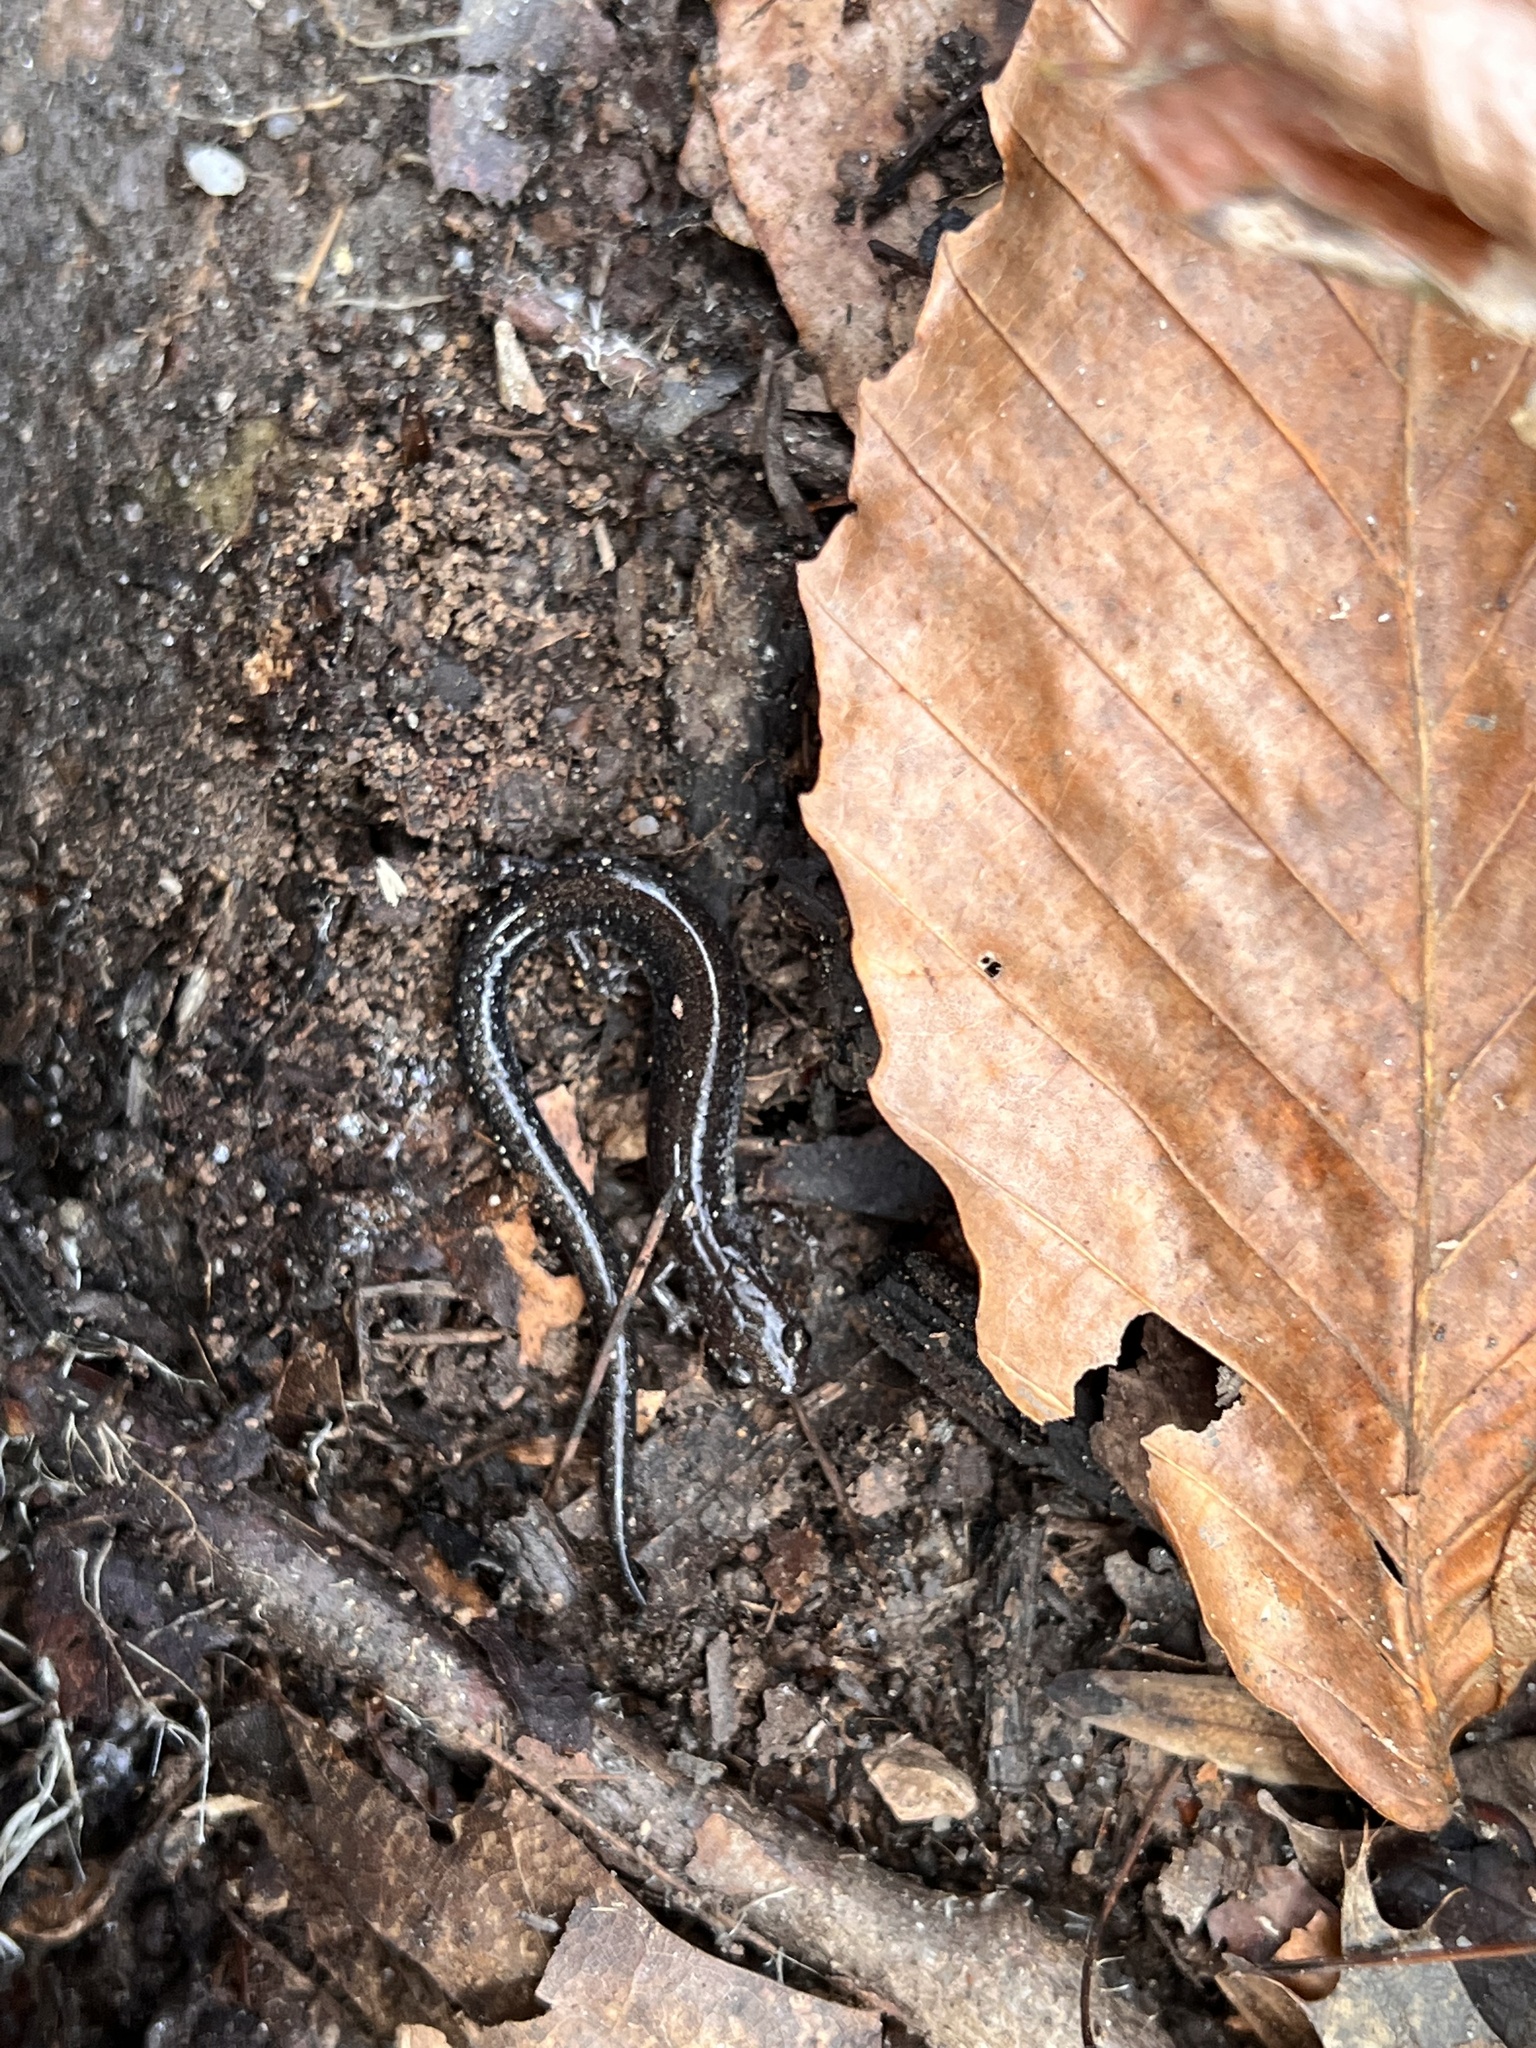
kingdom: Animalia
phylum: Chordata
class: Amphibia
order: Caudata
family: Plethodontidae
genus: Plethodon
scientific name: Plethodon cinereus
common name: Redback salamander
